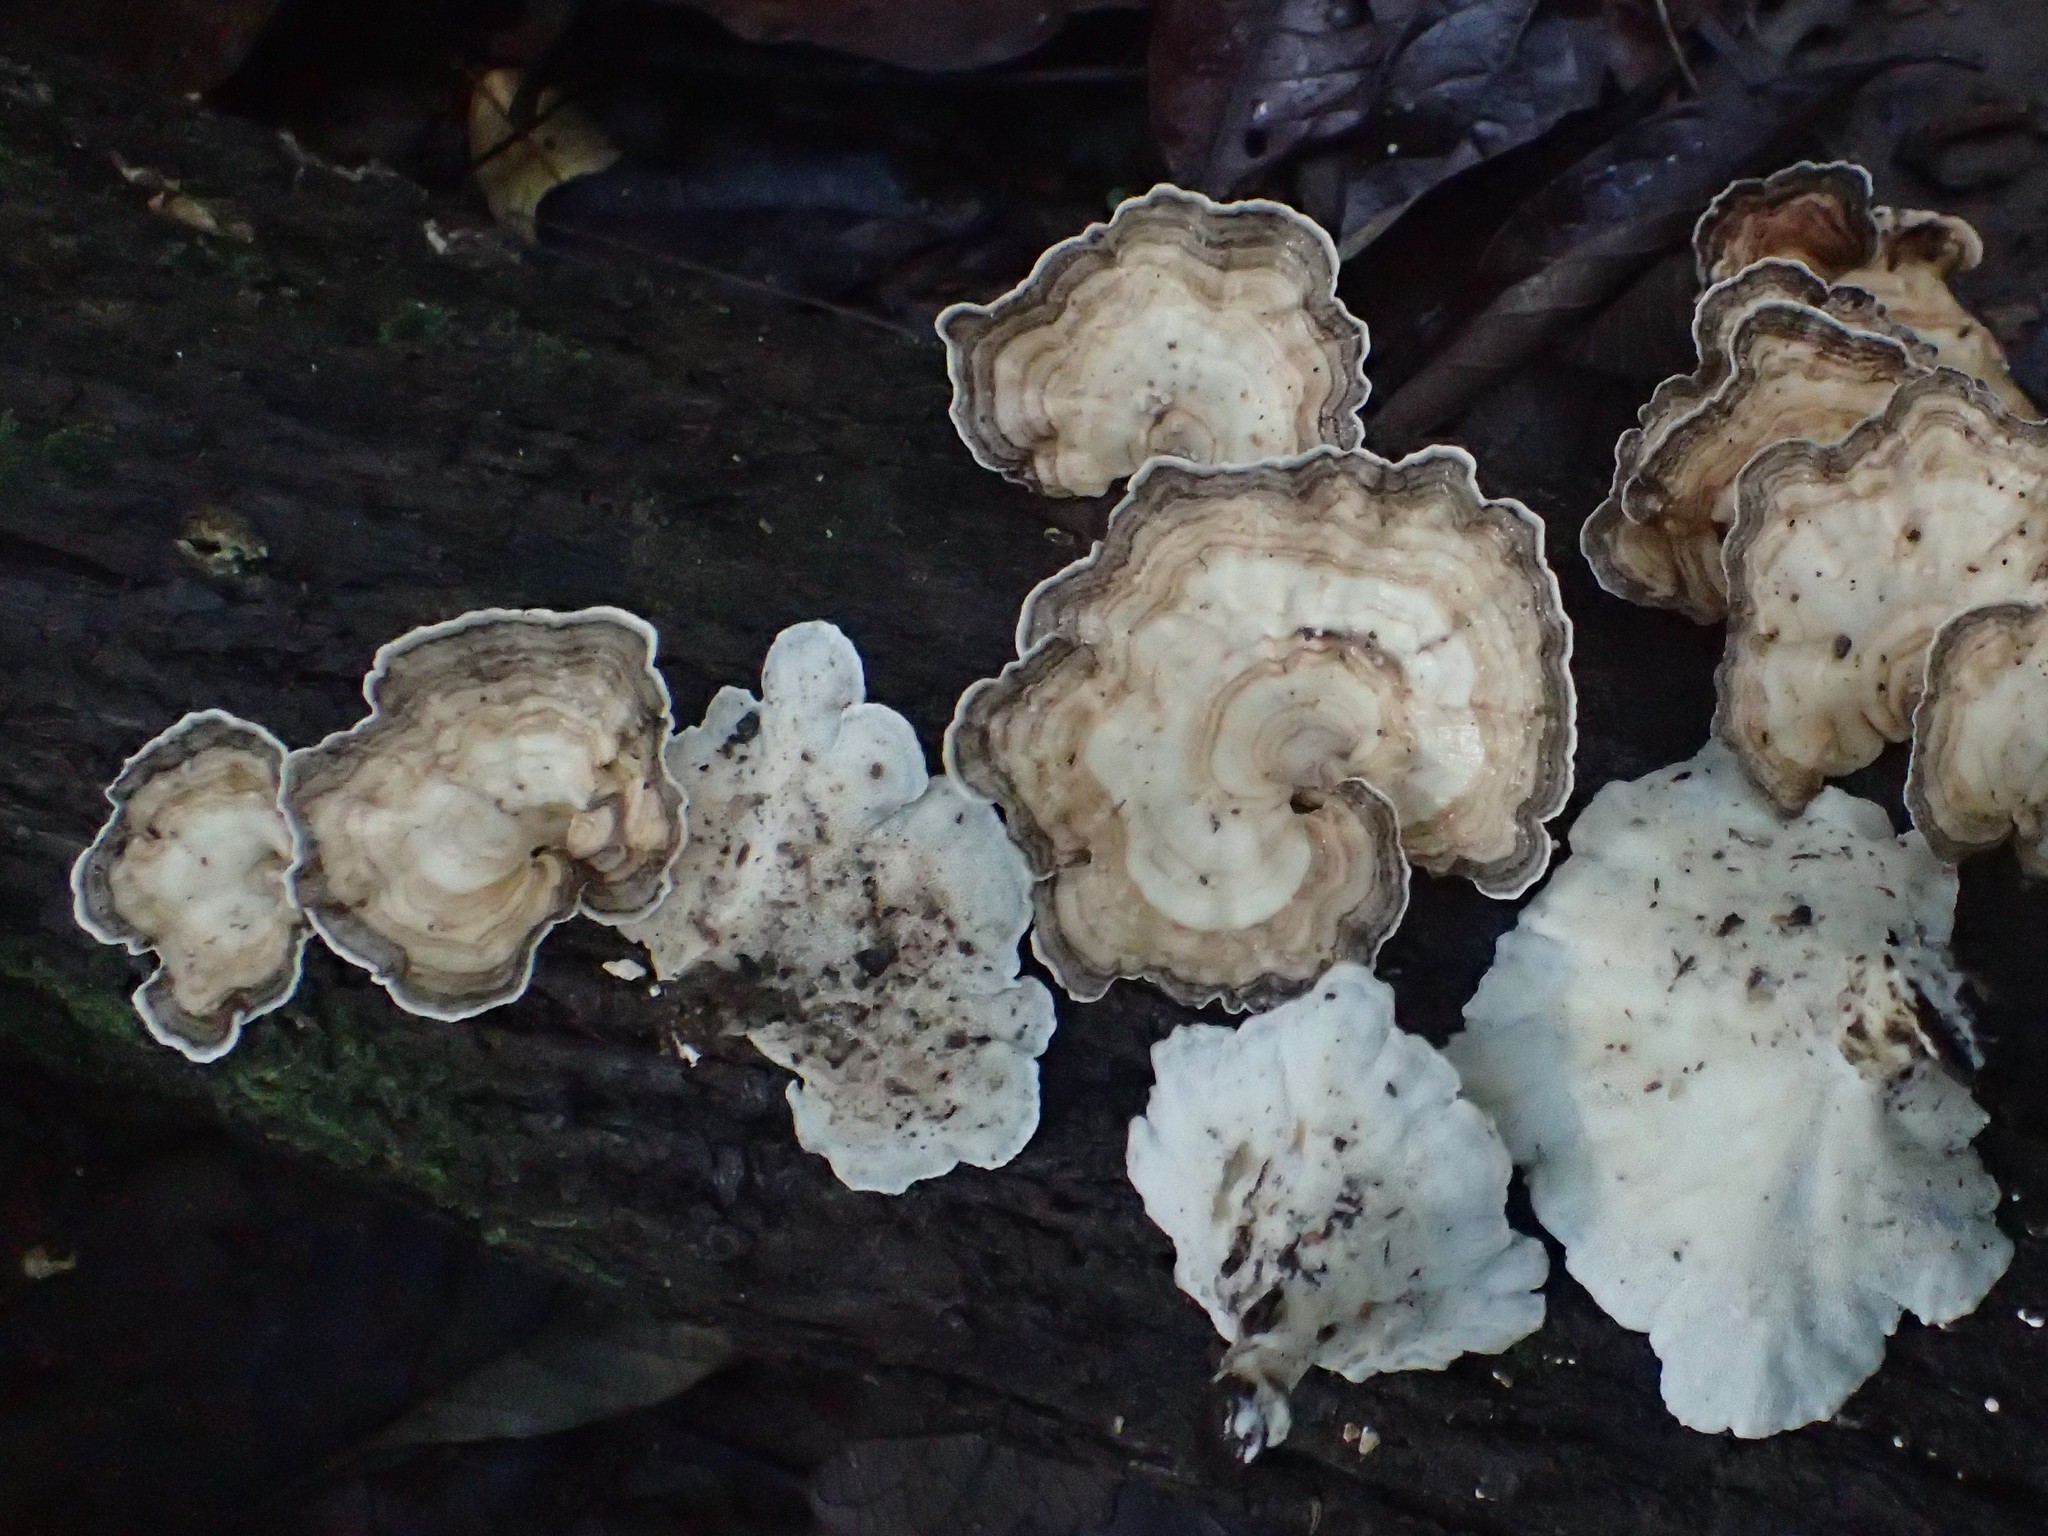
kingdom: Fungi
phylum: Basidiomycota
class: Agaricomycetes
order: Polyporales
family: Polyporaceae
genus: Cubamyces
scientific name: Cubamyces menziesii
